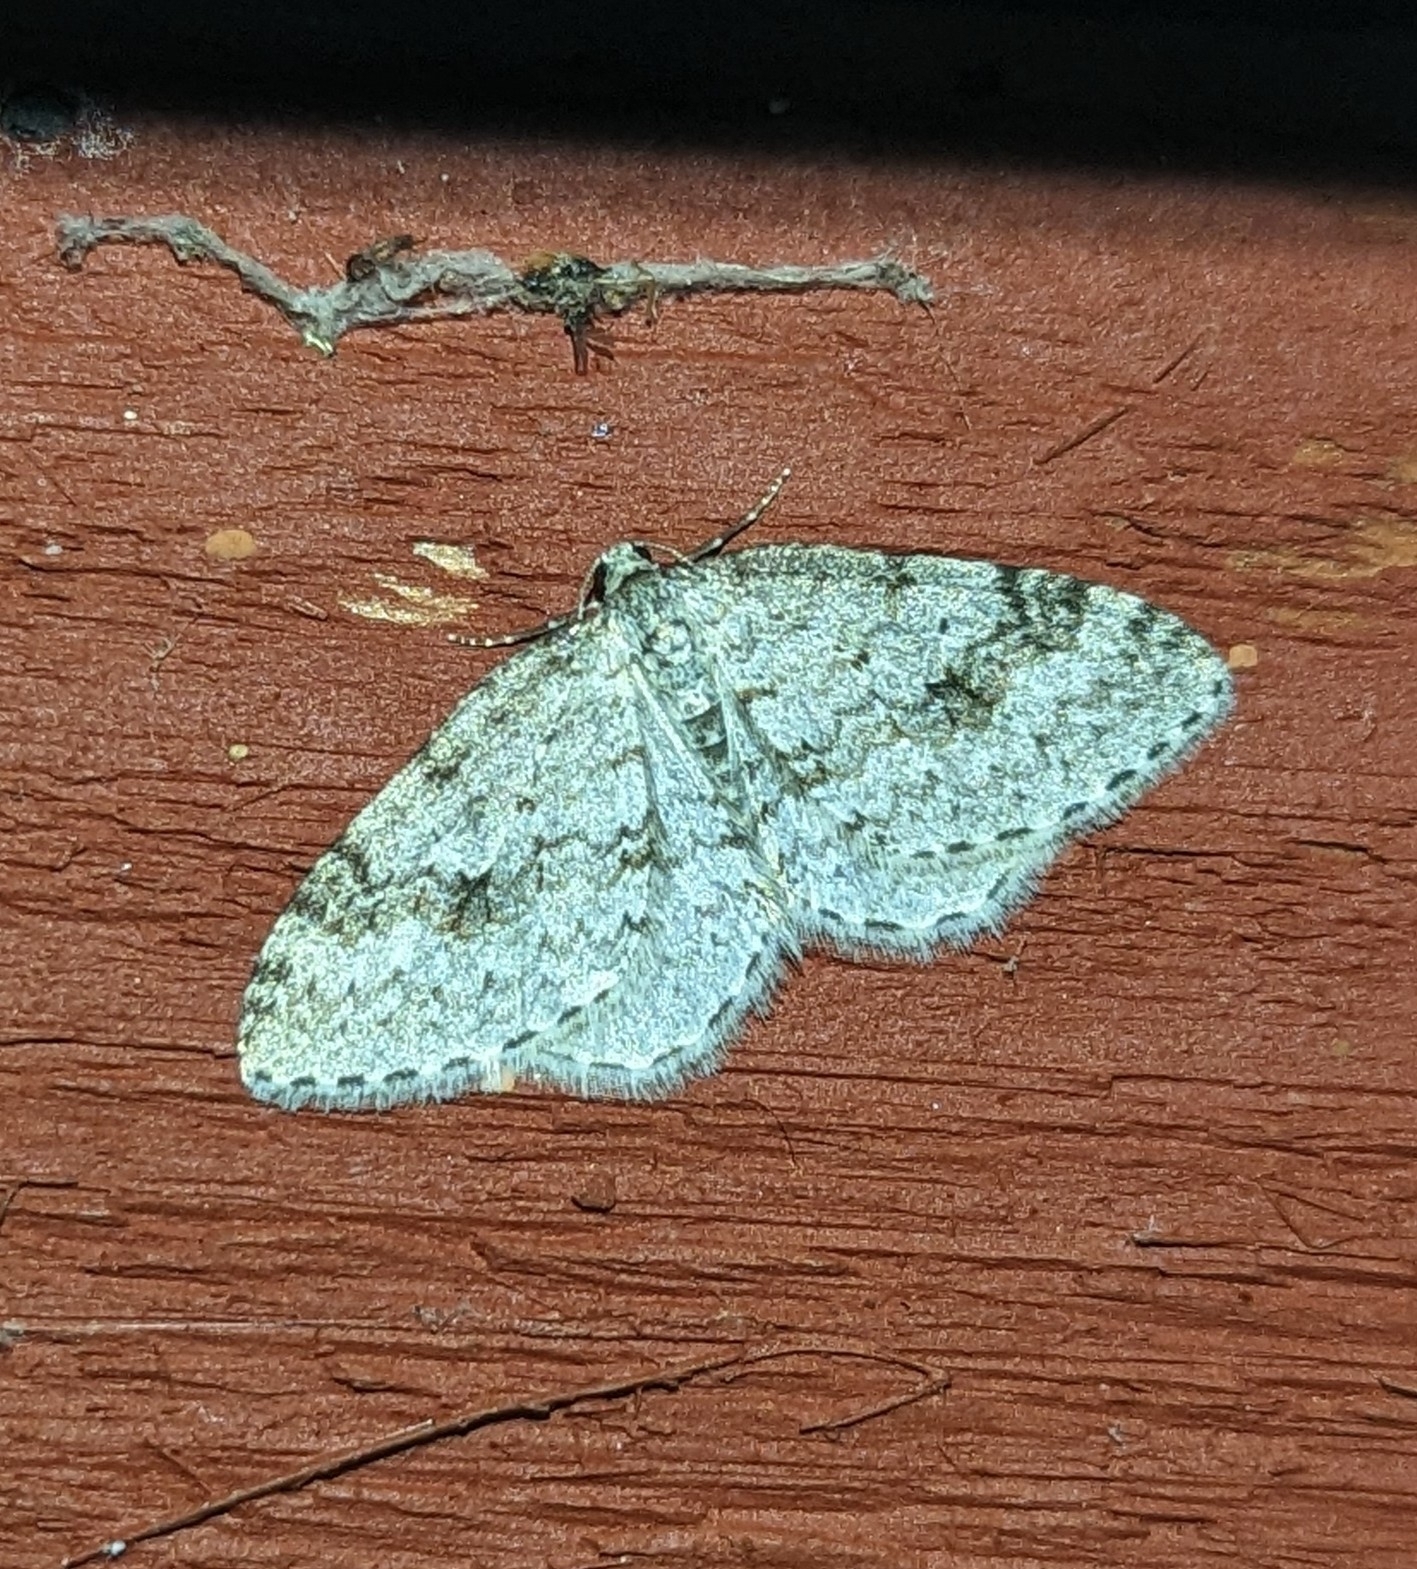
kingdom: Animalia
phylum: Arthropoda
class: Insecta
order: Lepidoptera
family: Geometridae
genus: Venusia
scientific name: Venusia pearsalli
